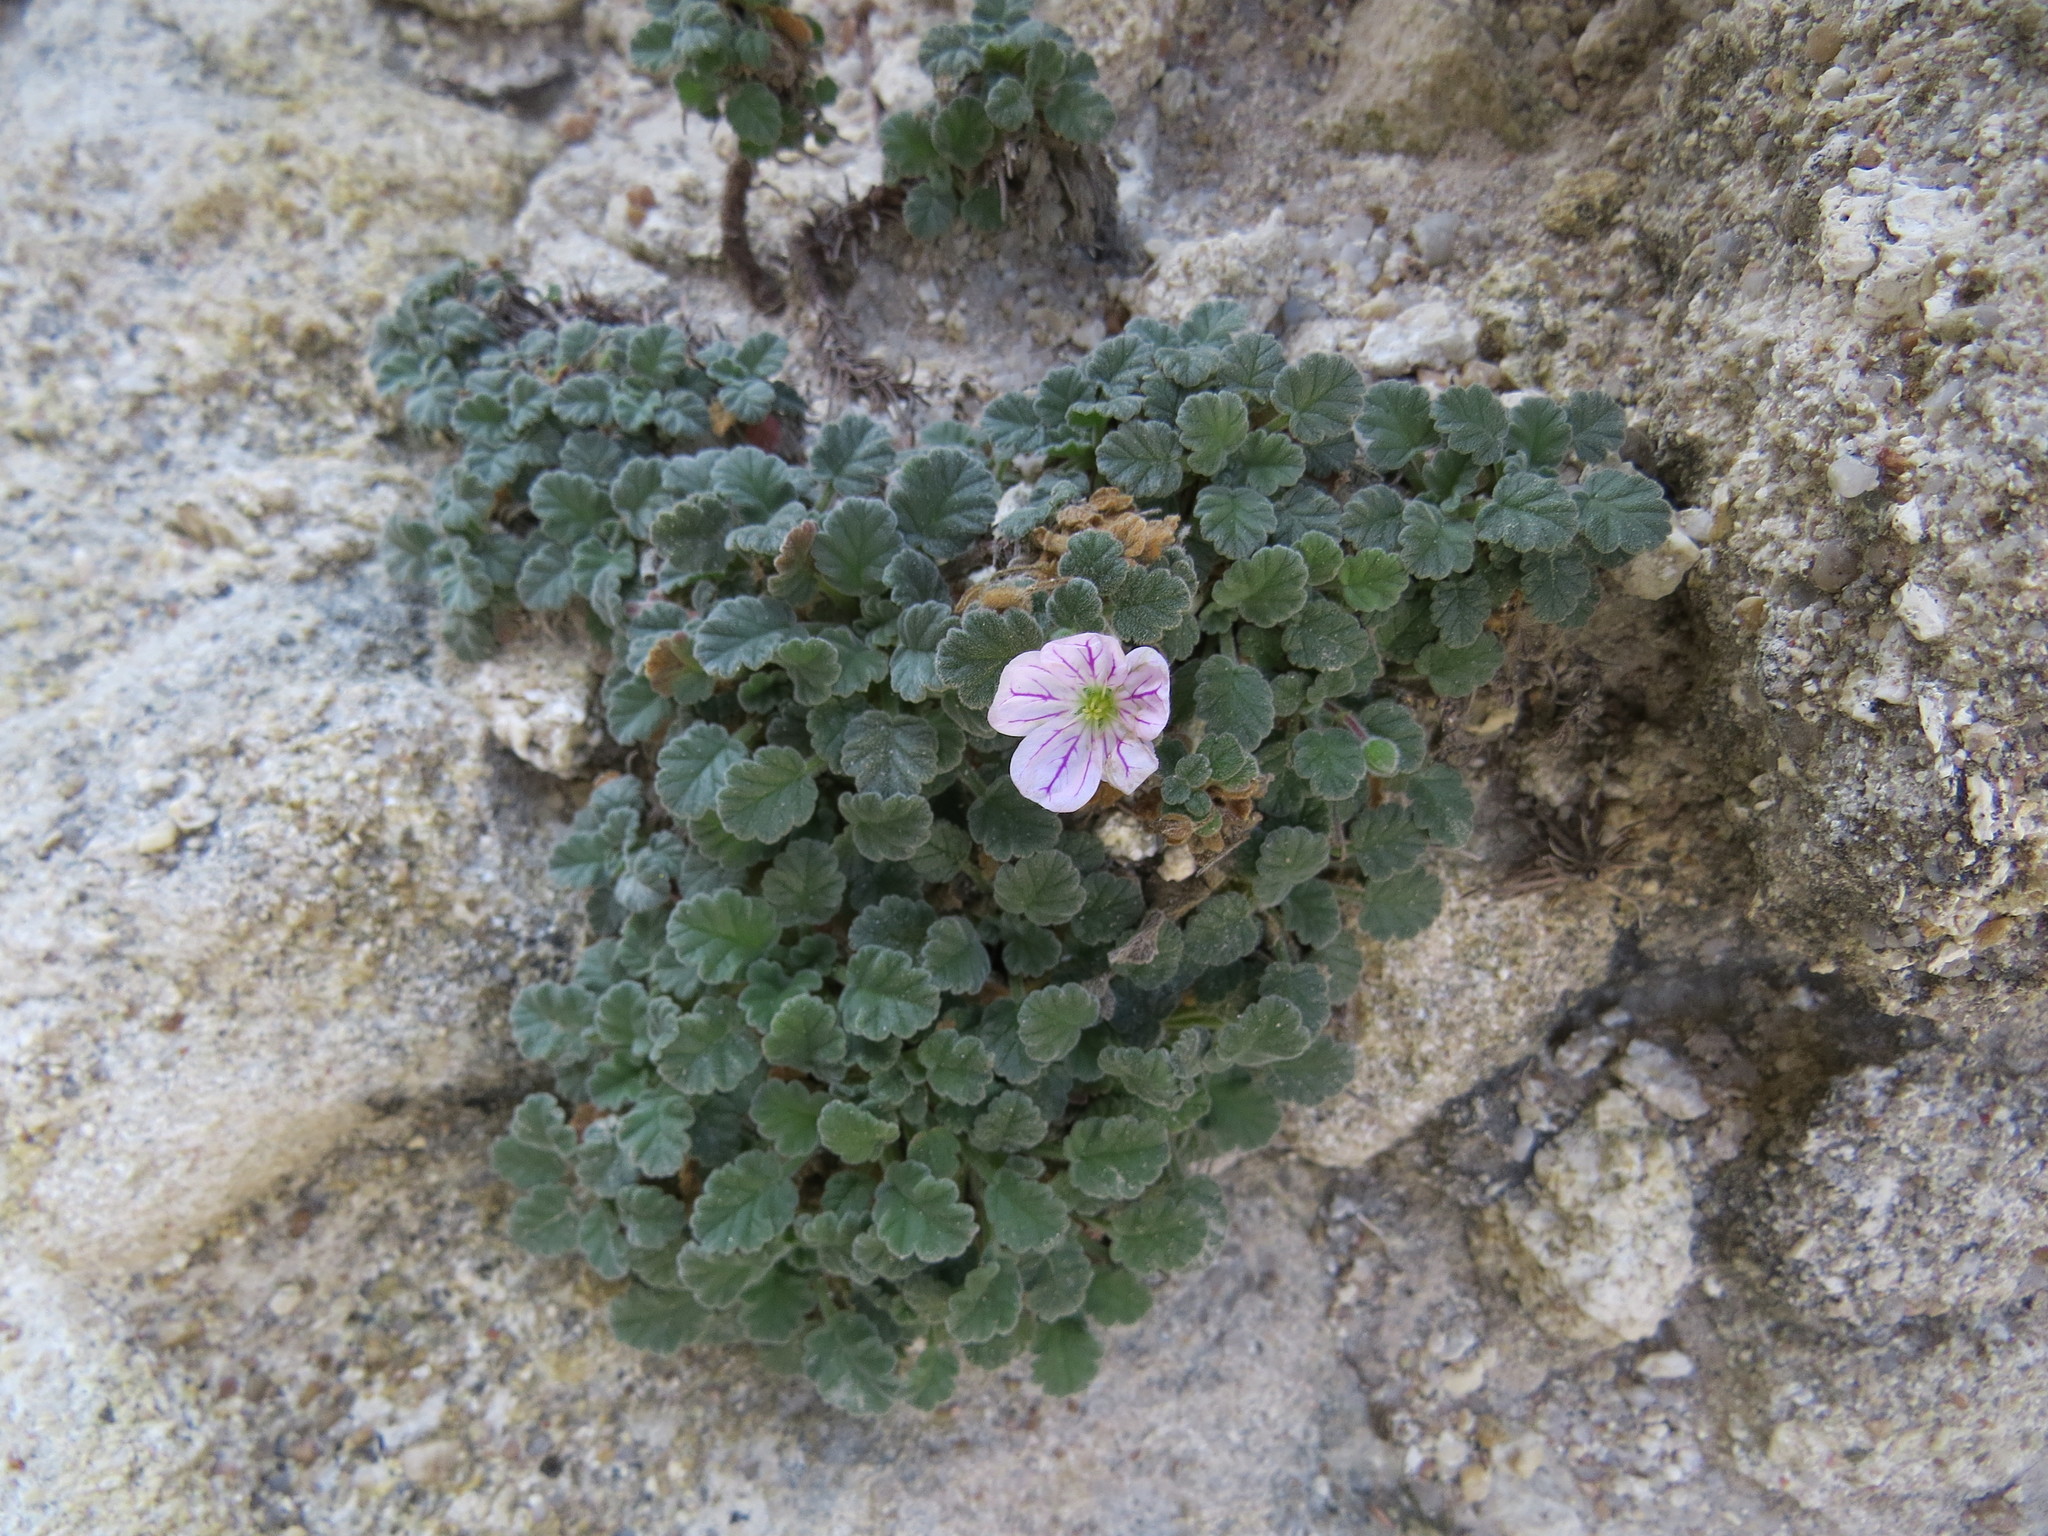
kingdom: Plantae
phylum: Tracheophyta
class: Magnoliopsida
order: Geraniales
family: Geraniaceae
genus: Erodium
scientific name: Erodium corsicum
